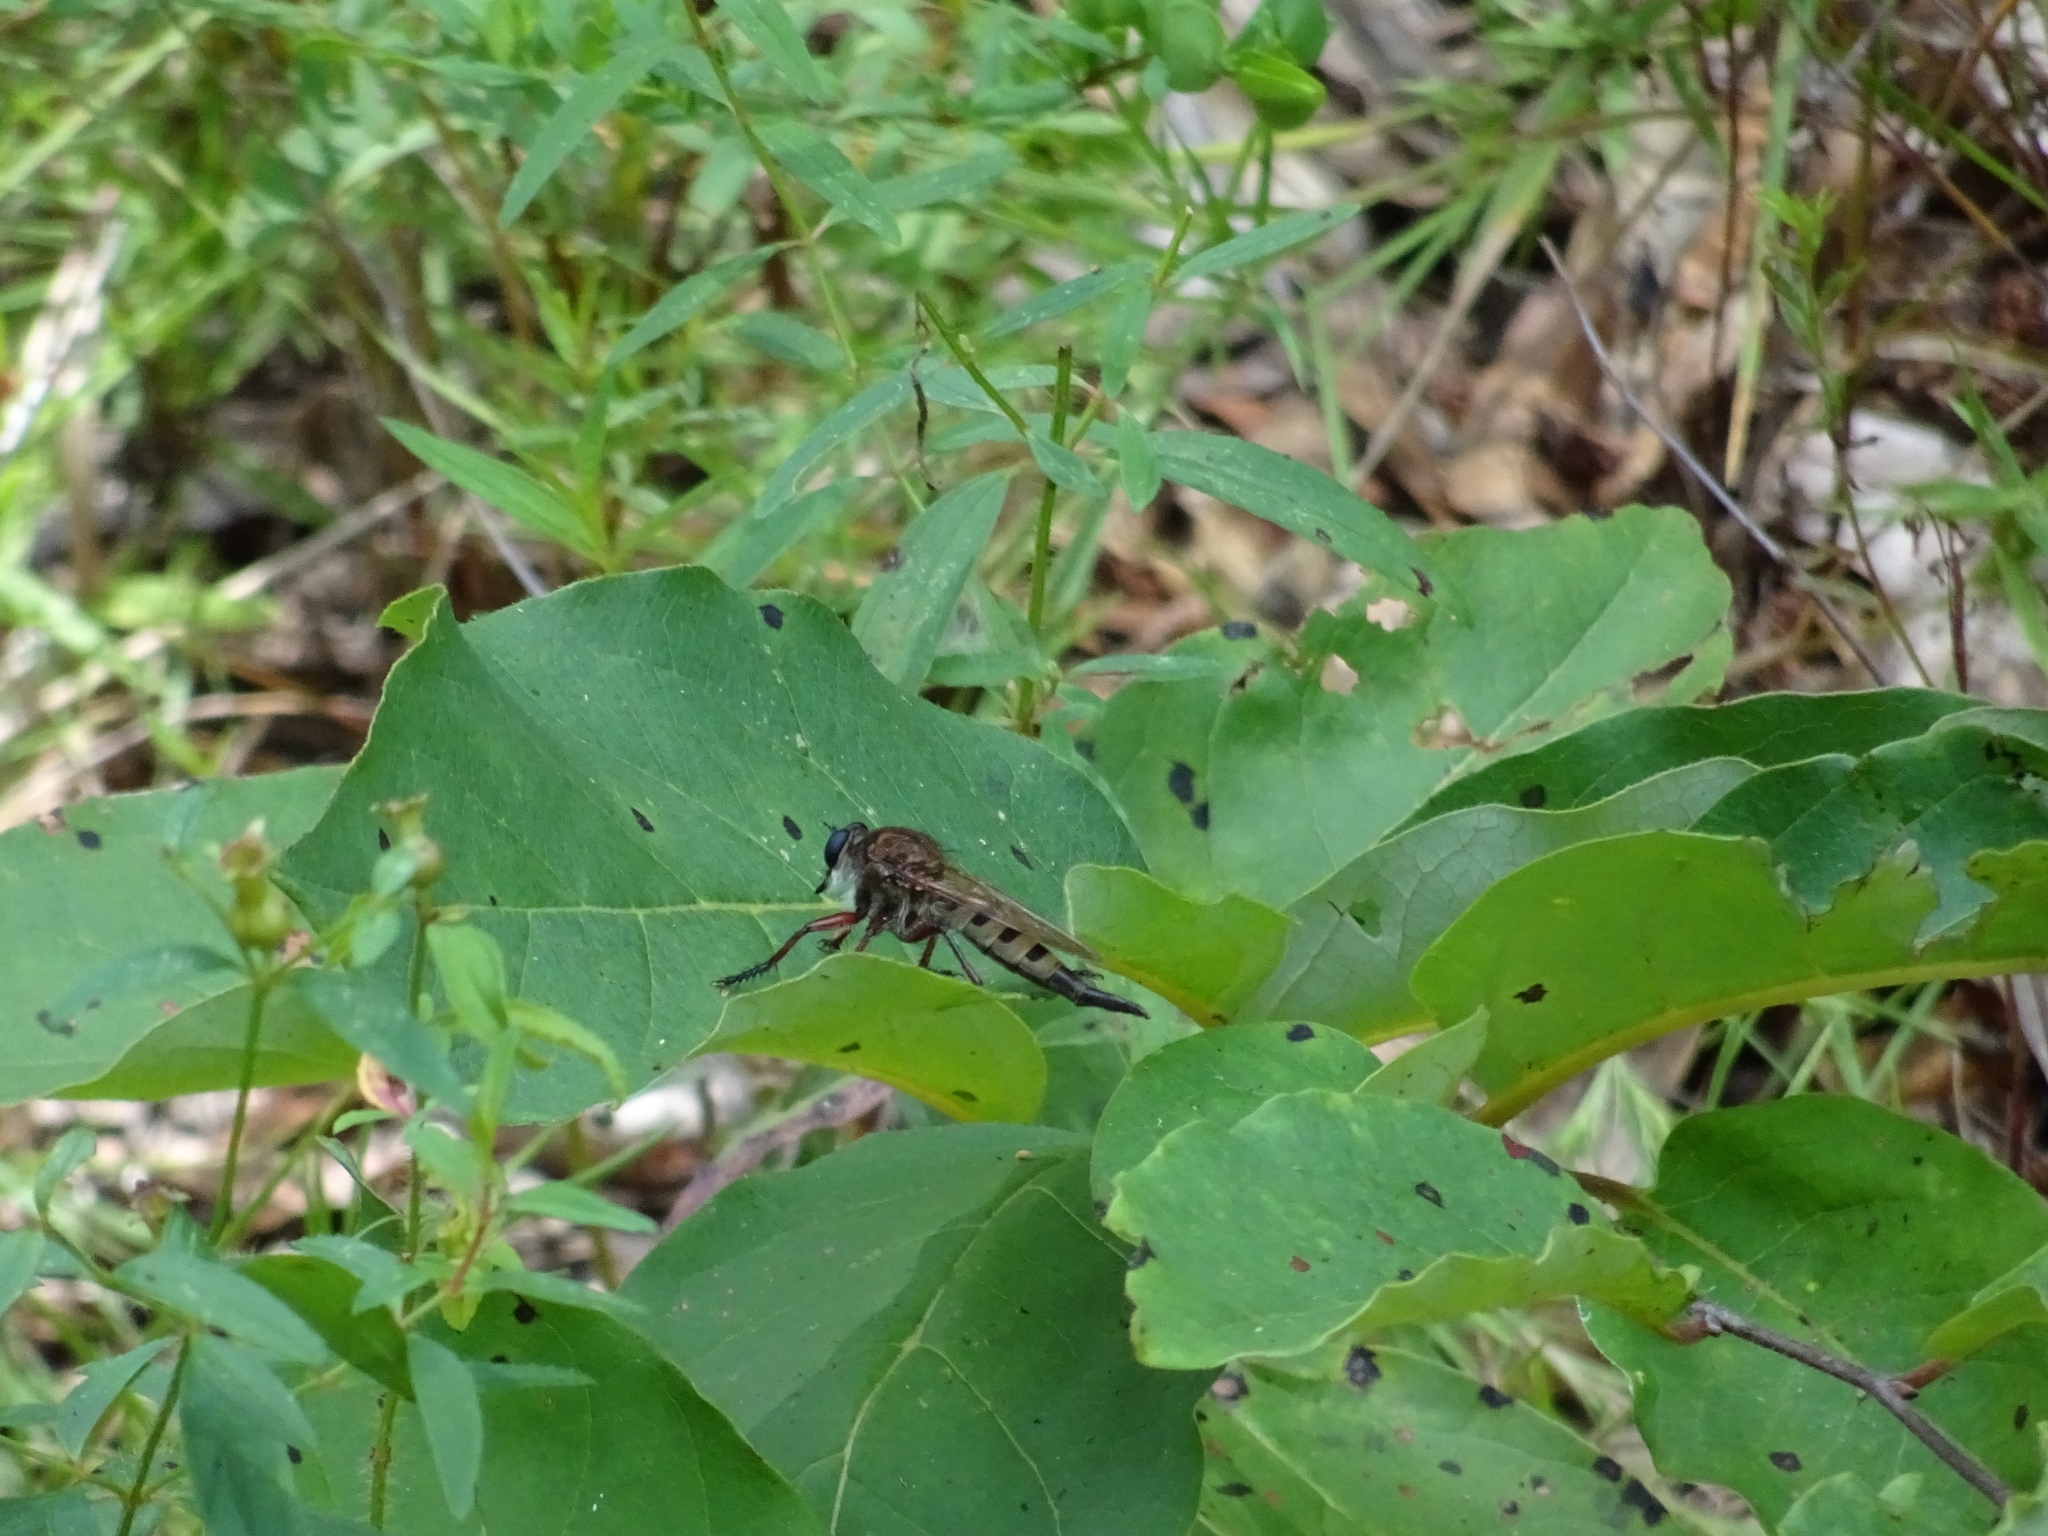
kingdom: Animalia
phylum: Arthropoda
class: Insecta
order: Diptera
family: Asilidae
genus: Promachus
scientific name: Promachus hinei
